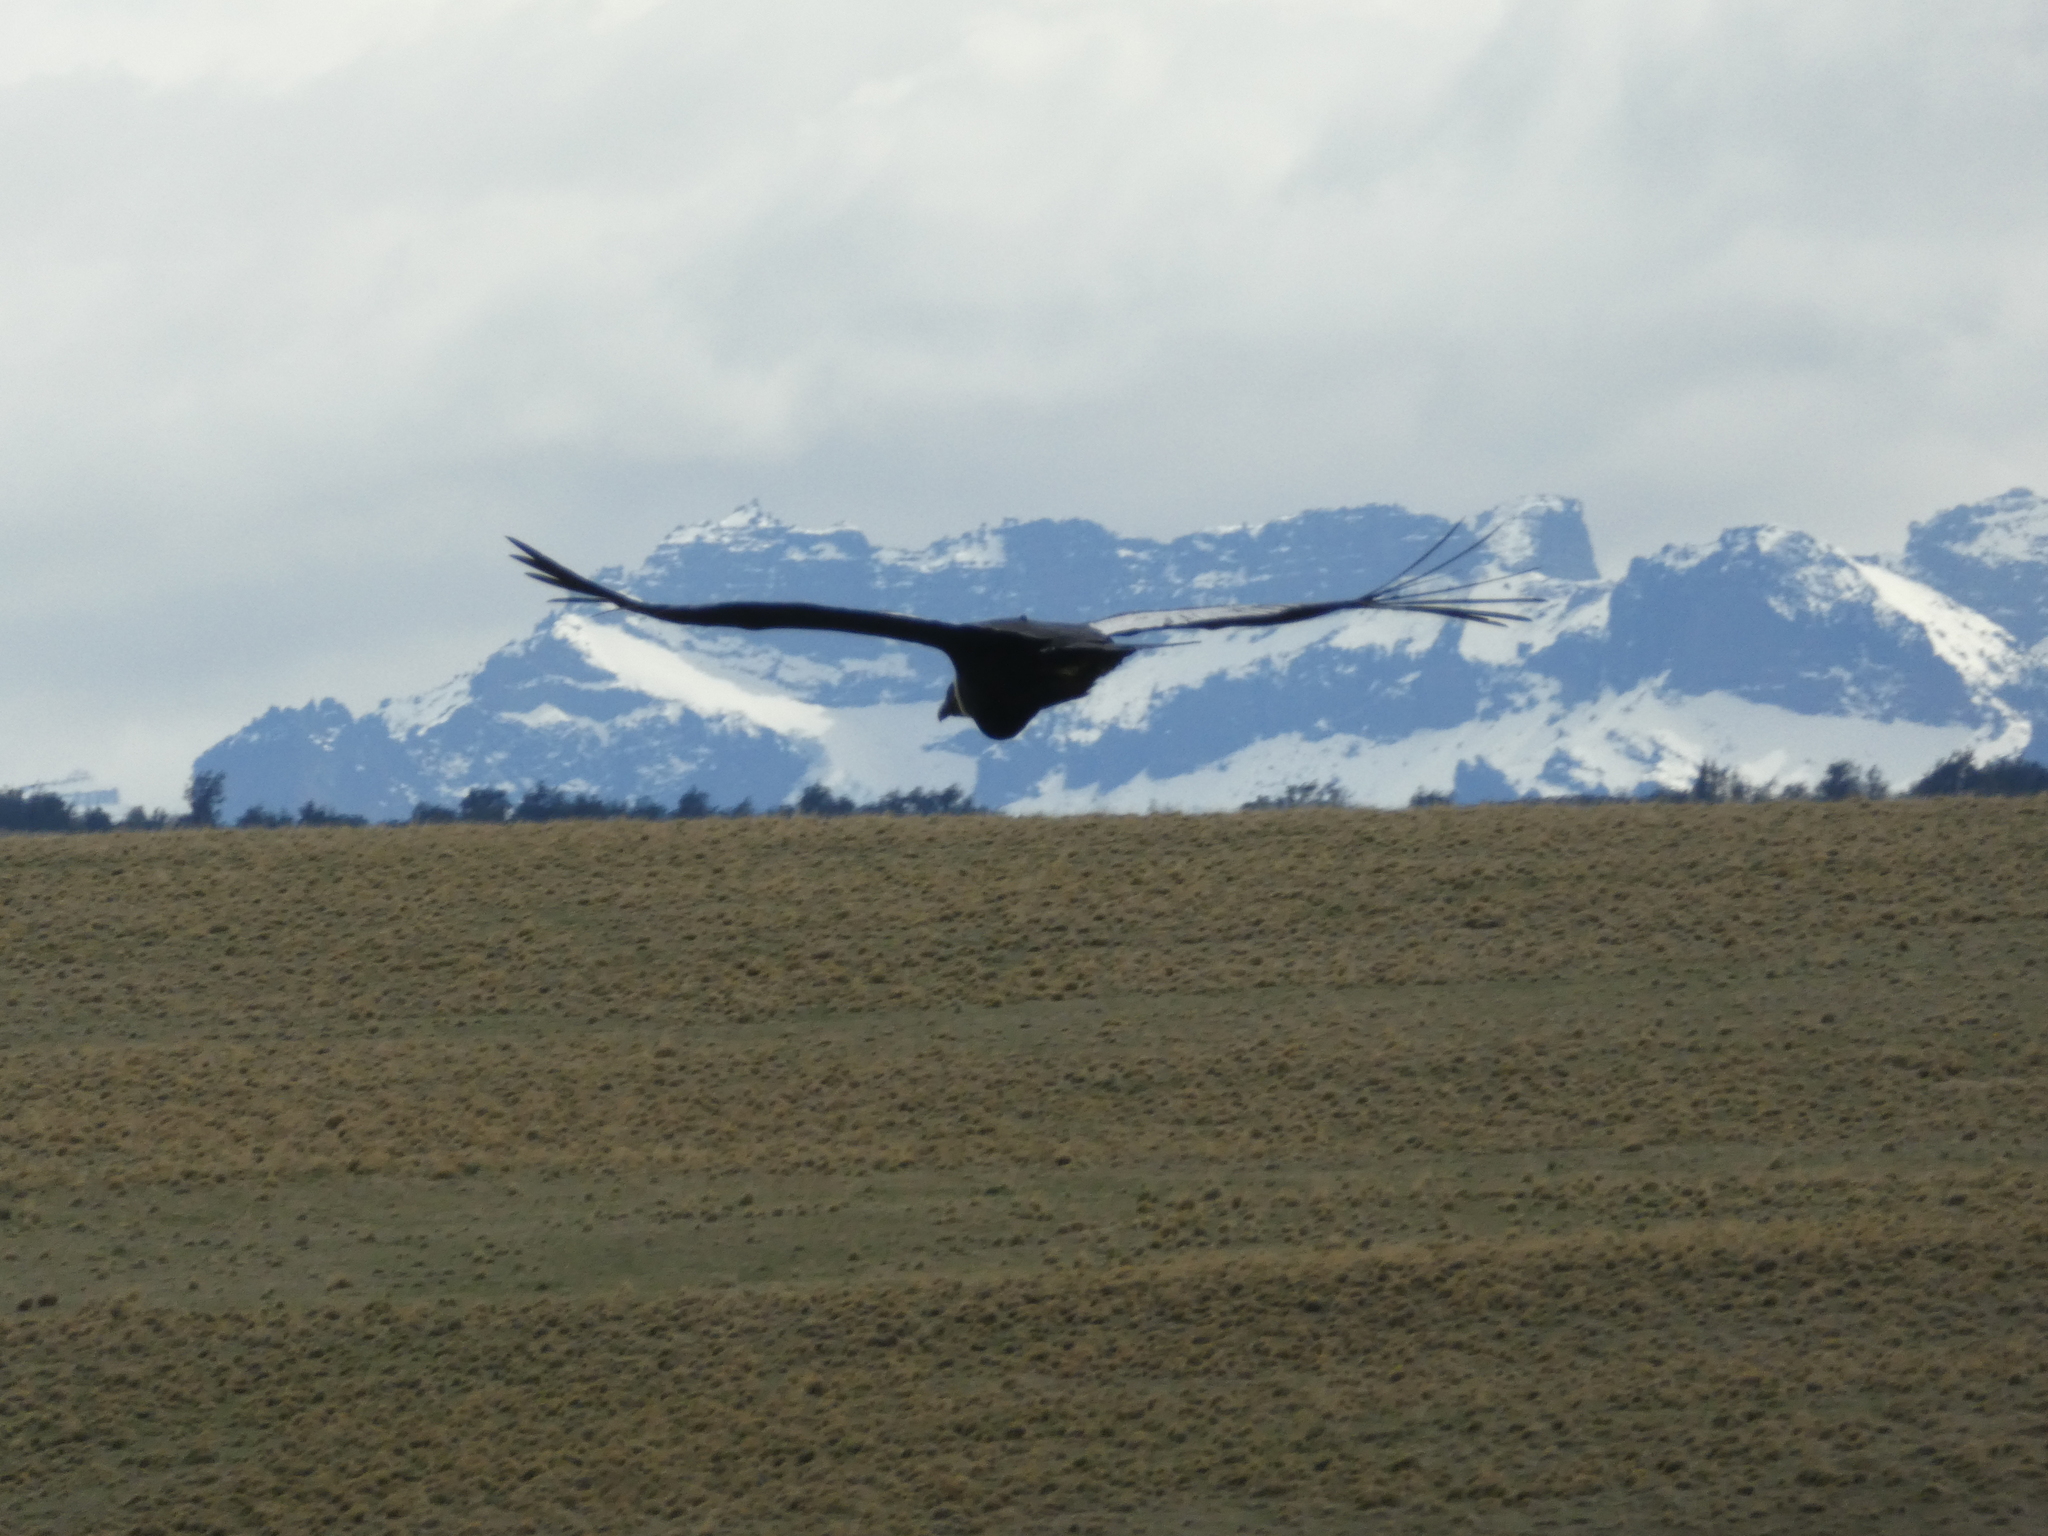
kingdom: Animalia
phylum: Chordata
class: Aves
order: Accipitriformes
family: Cathartidae
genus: Vultur
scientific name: Vultur gryphus
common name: Andean condor
